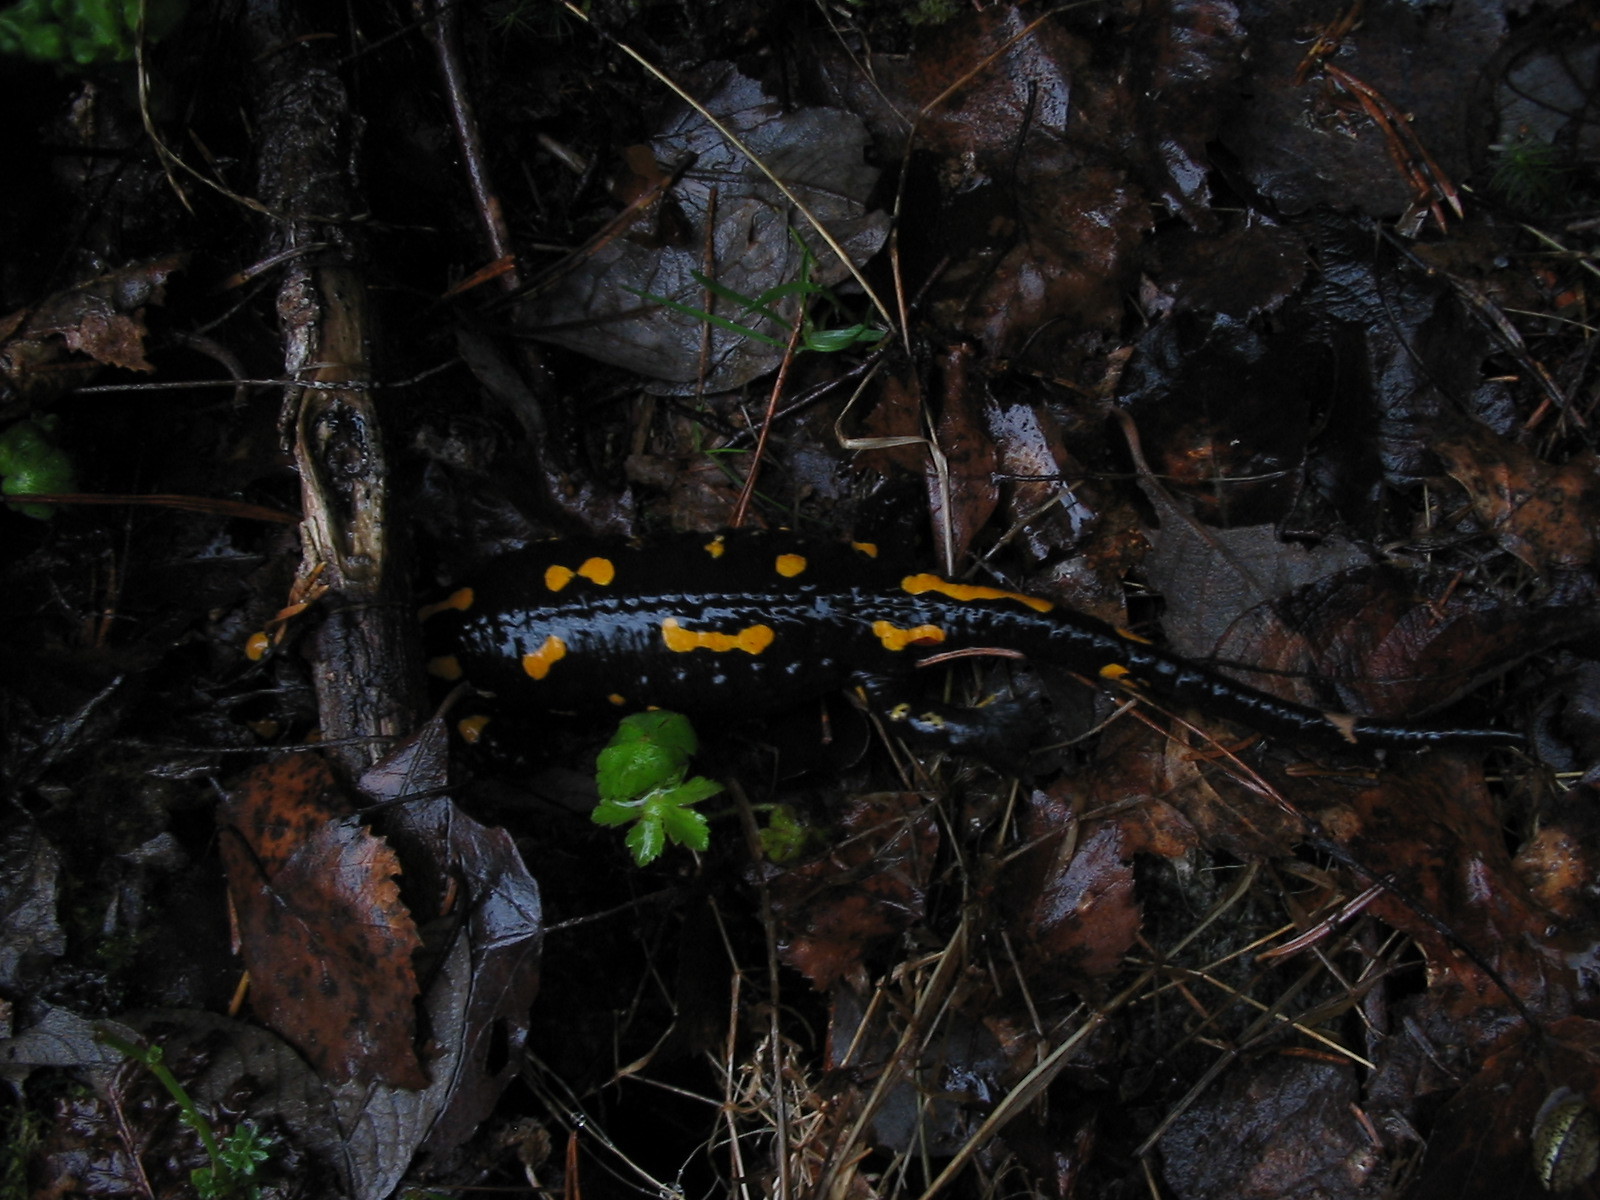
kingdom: Animalia
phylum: Chordata
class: Amphibia
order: Caudata
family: Salamandridae
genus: Salamandra
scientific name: Salamandra salamandra
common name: Fire salamander
